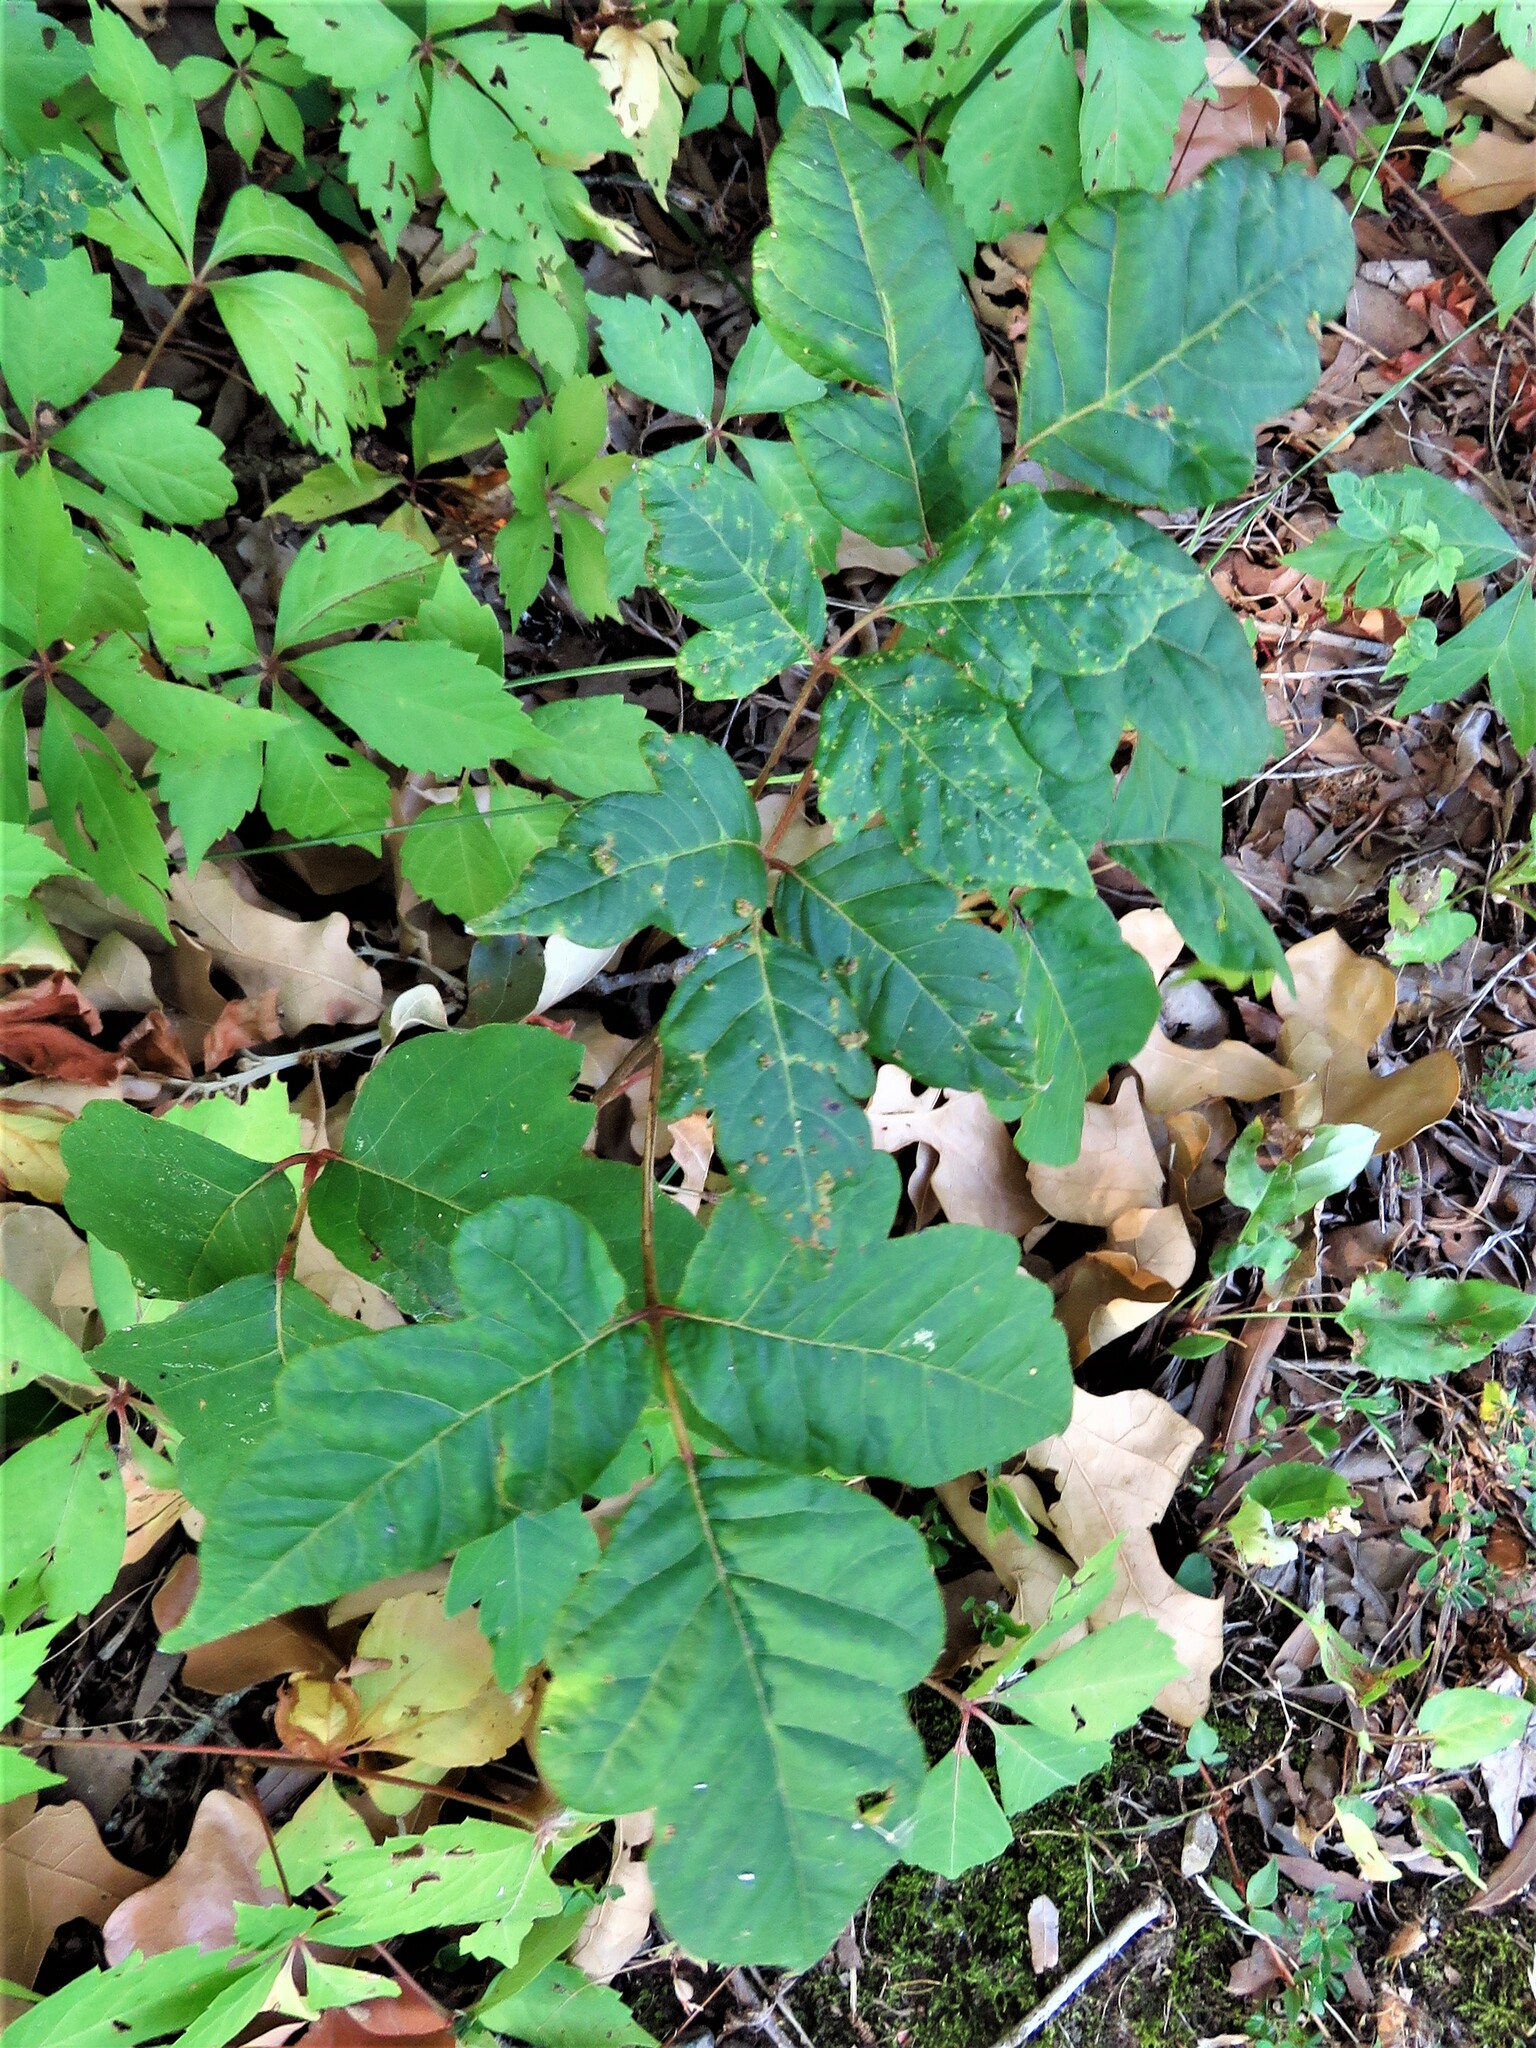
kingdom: Plantae
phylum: Tracheophyta
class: Magnoliopsida
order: Sapindales
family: Anacardiaceae
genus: Toxicodendron
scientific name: Toxicodendron radicans
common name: Poison ivy
